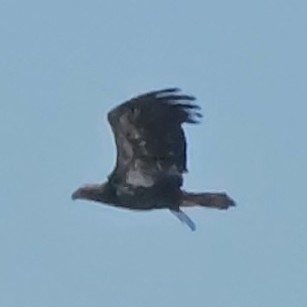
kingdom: Animalia
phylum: Chordata
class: Aves
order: Accipitriformes
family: Accipitridae
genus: Haliaeetus
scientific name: Haliaeetus leucocephalus
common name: Bald eagle
